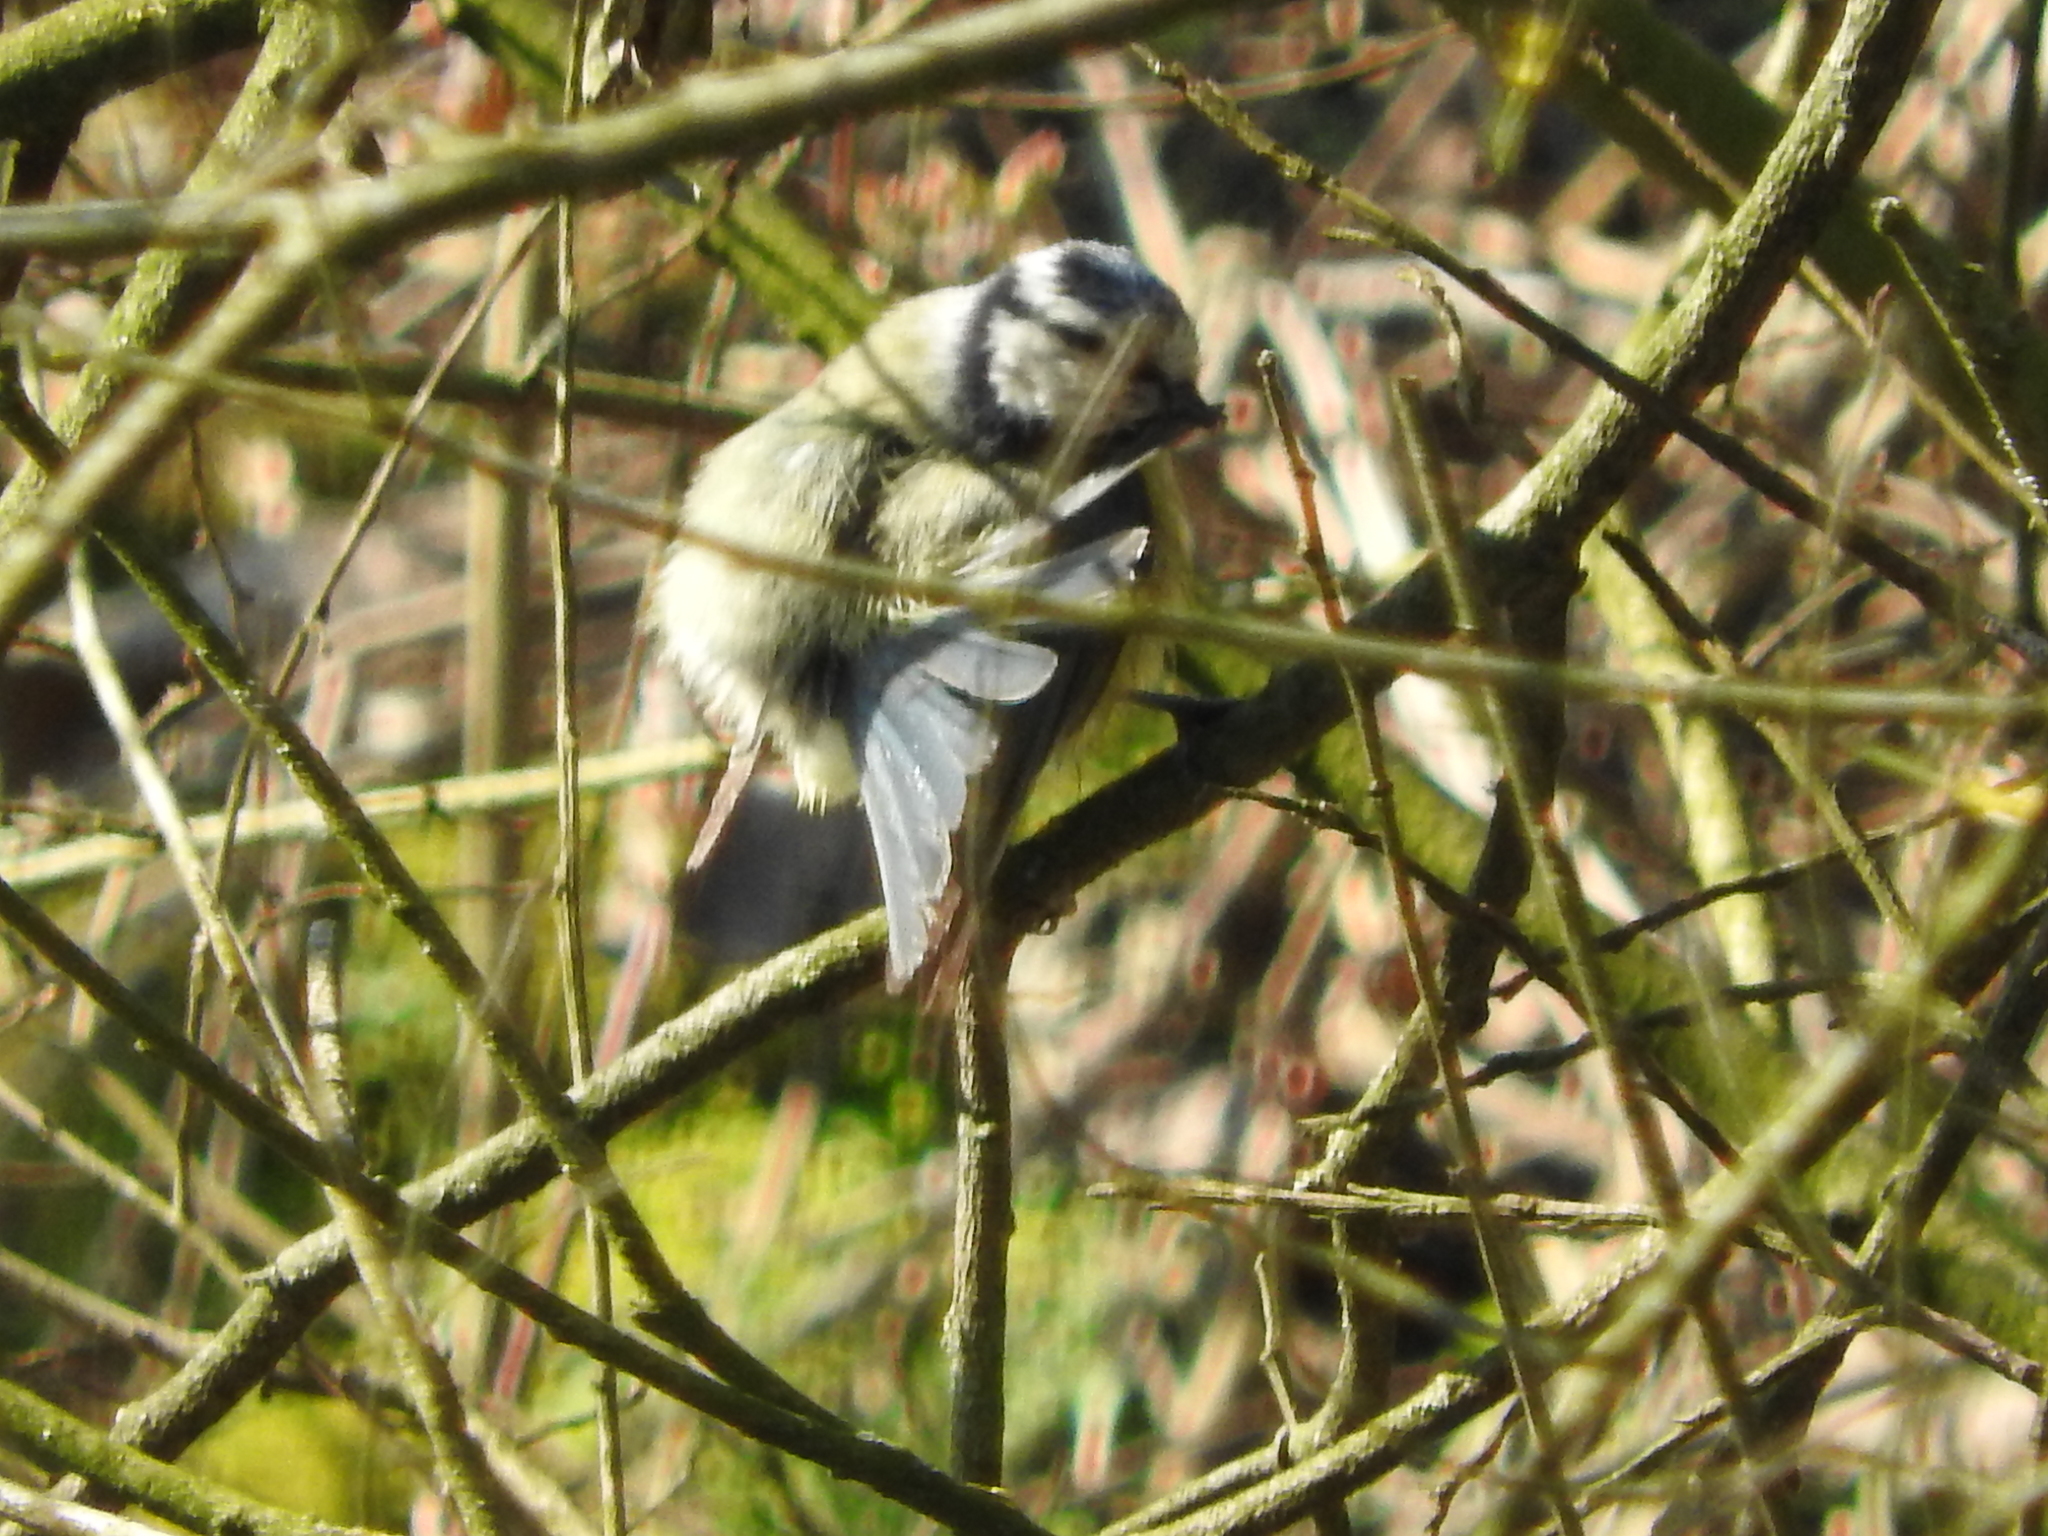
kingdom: Animalia
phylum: Chordata
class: Aves
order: Passeriformes
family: Paridae
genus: Cyanistes
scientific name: Cyanistes caeruleus
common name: Eurasian blue tit
